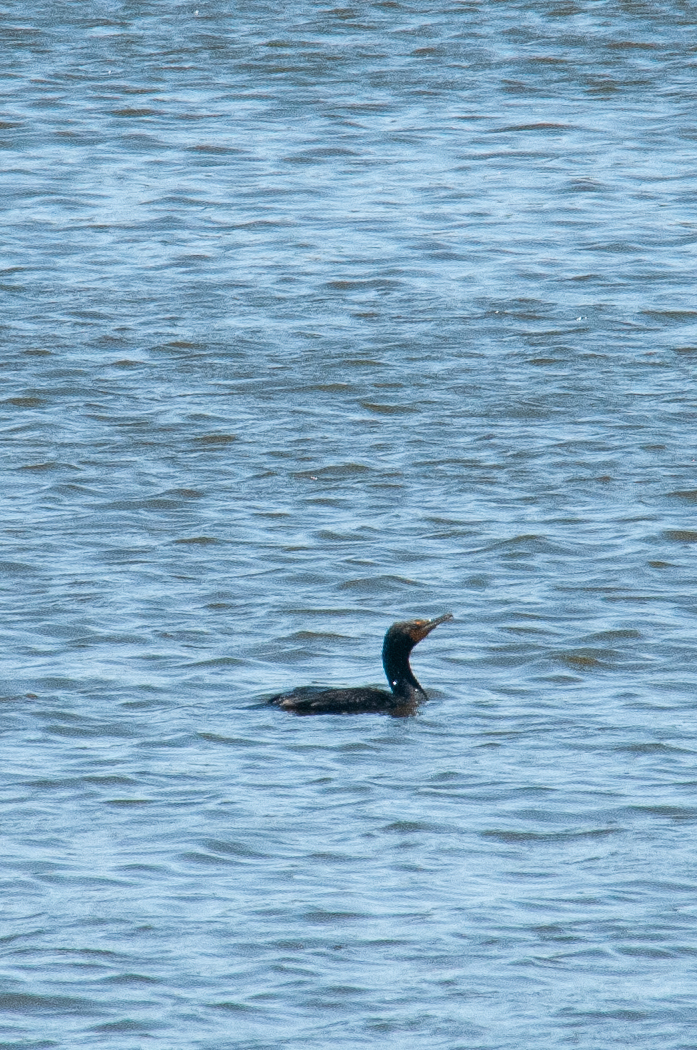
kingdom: Animalia
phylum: Chordata
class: Aves
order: Suliformes
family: Phalacrocoracidae
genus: Phalacrocorax
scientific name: Phalacrocorax auritus
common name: Double-crested cormorant
